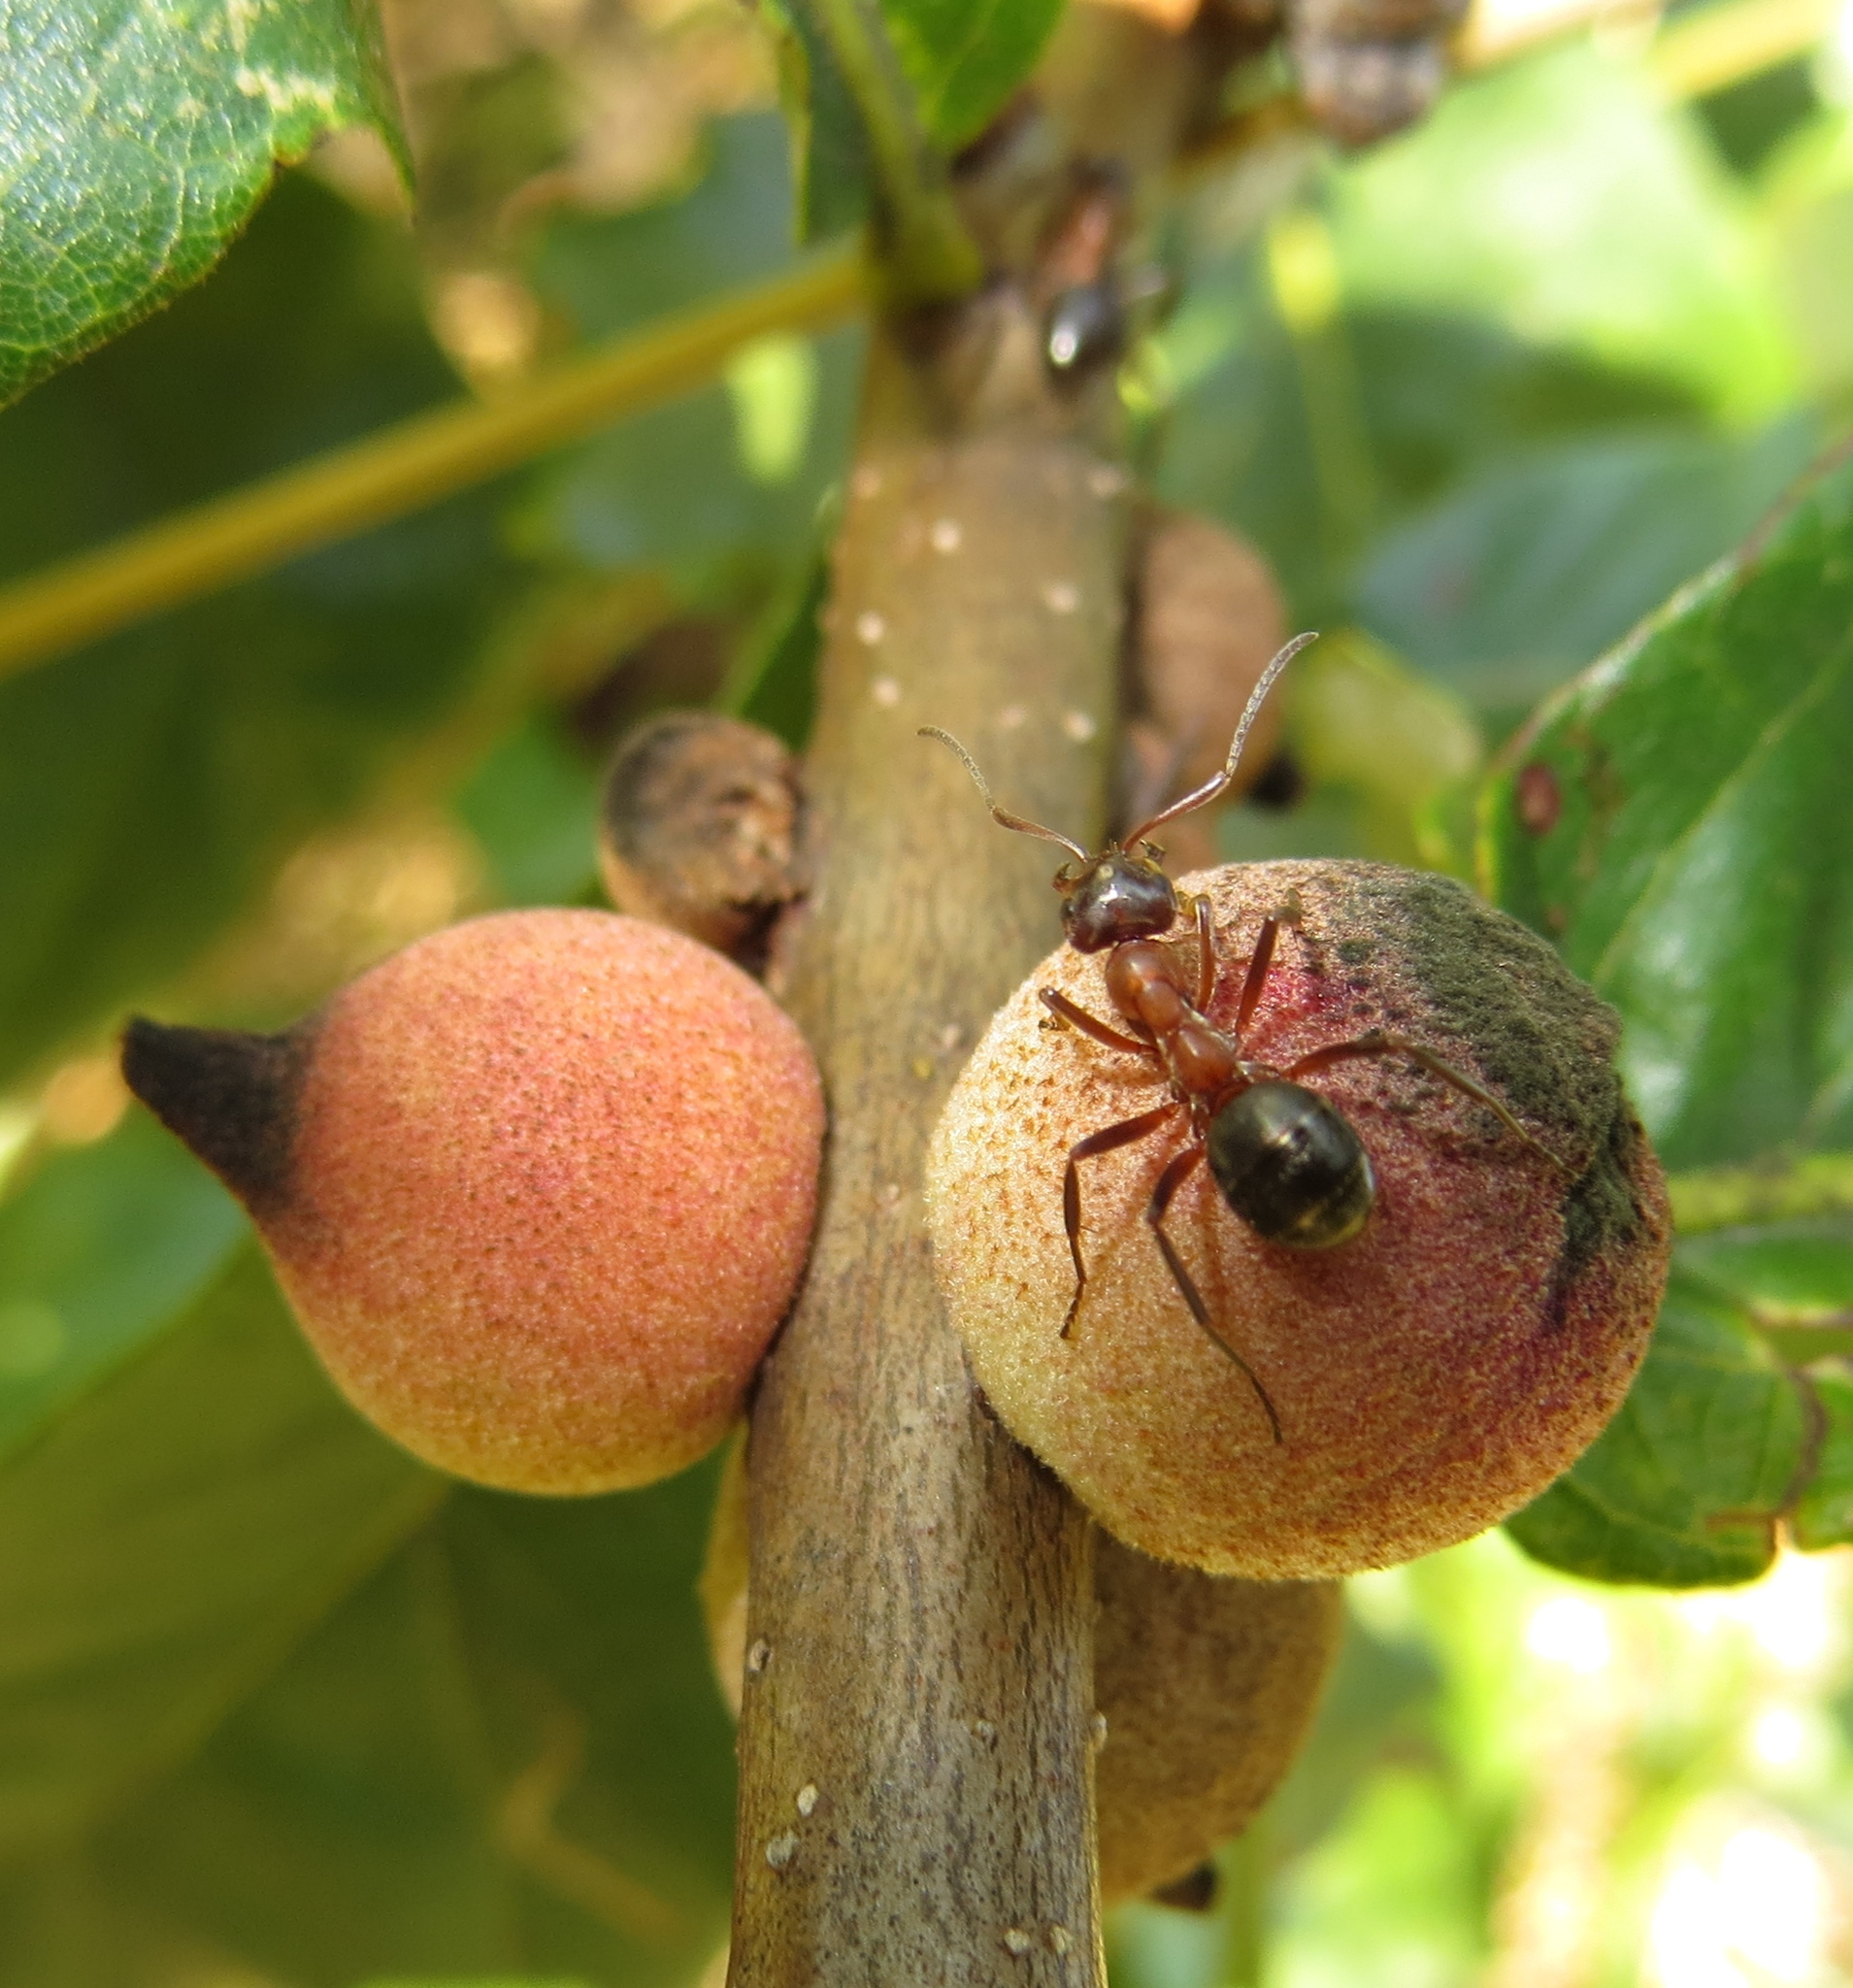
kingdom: Animalia
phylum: Arthropoda
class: Insecta
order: Hymenoptera
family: Cynipidae
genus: Disholcaspis
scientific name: Disholcaspis
